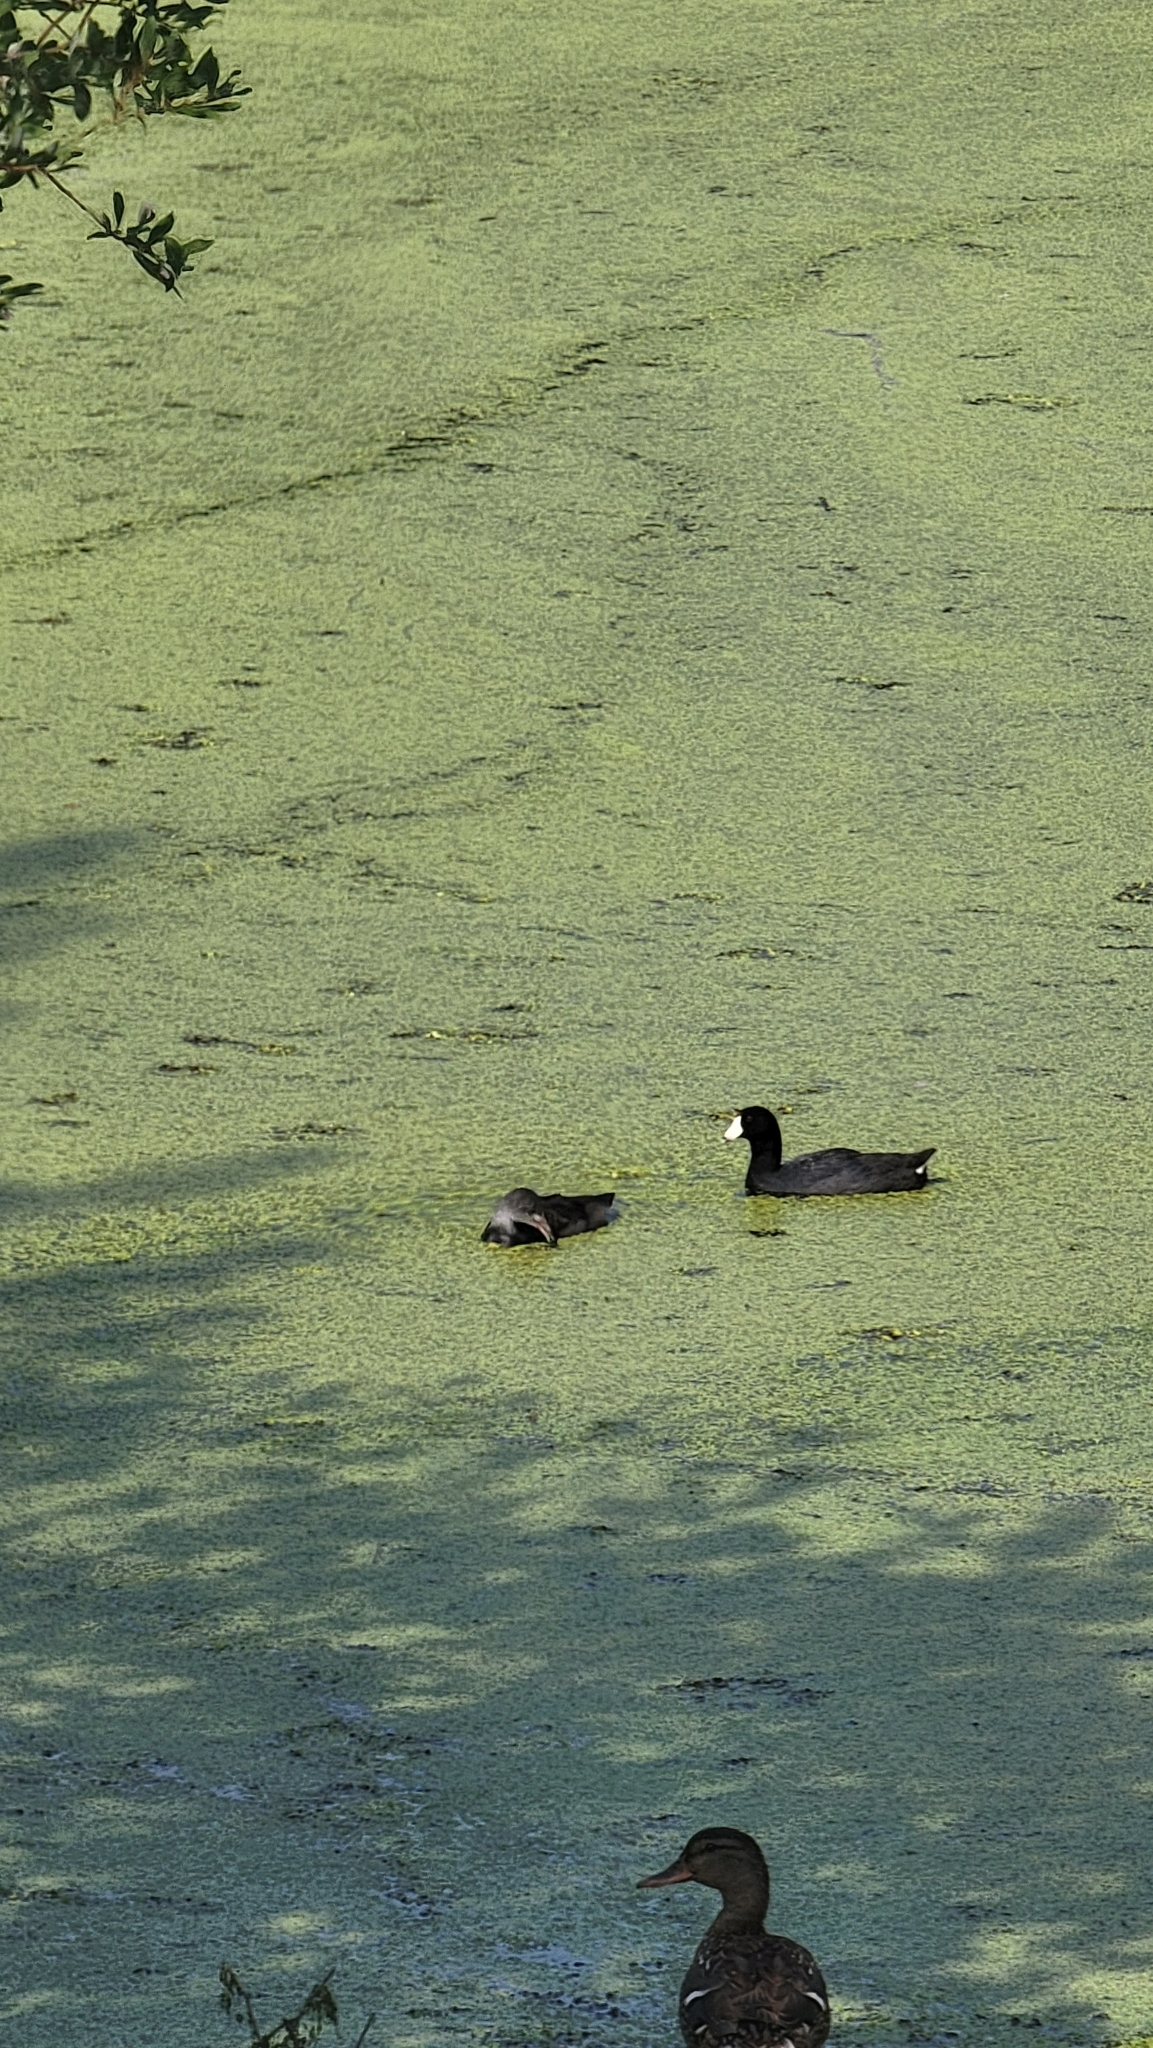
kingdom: Animalia
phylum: Chordata
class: Aves
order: Gruiformes
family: Rallidae
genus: Fulica
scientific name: Fulica americana
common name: American coot
